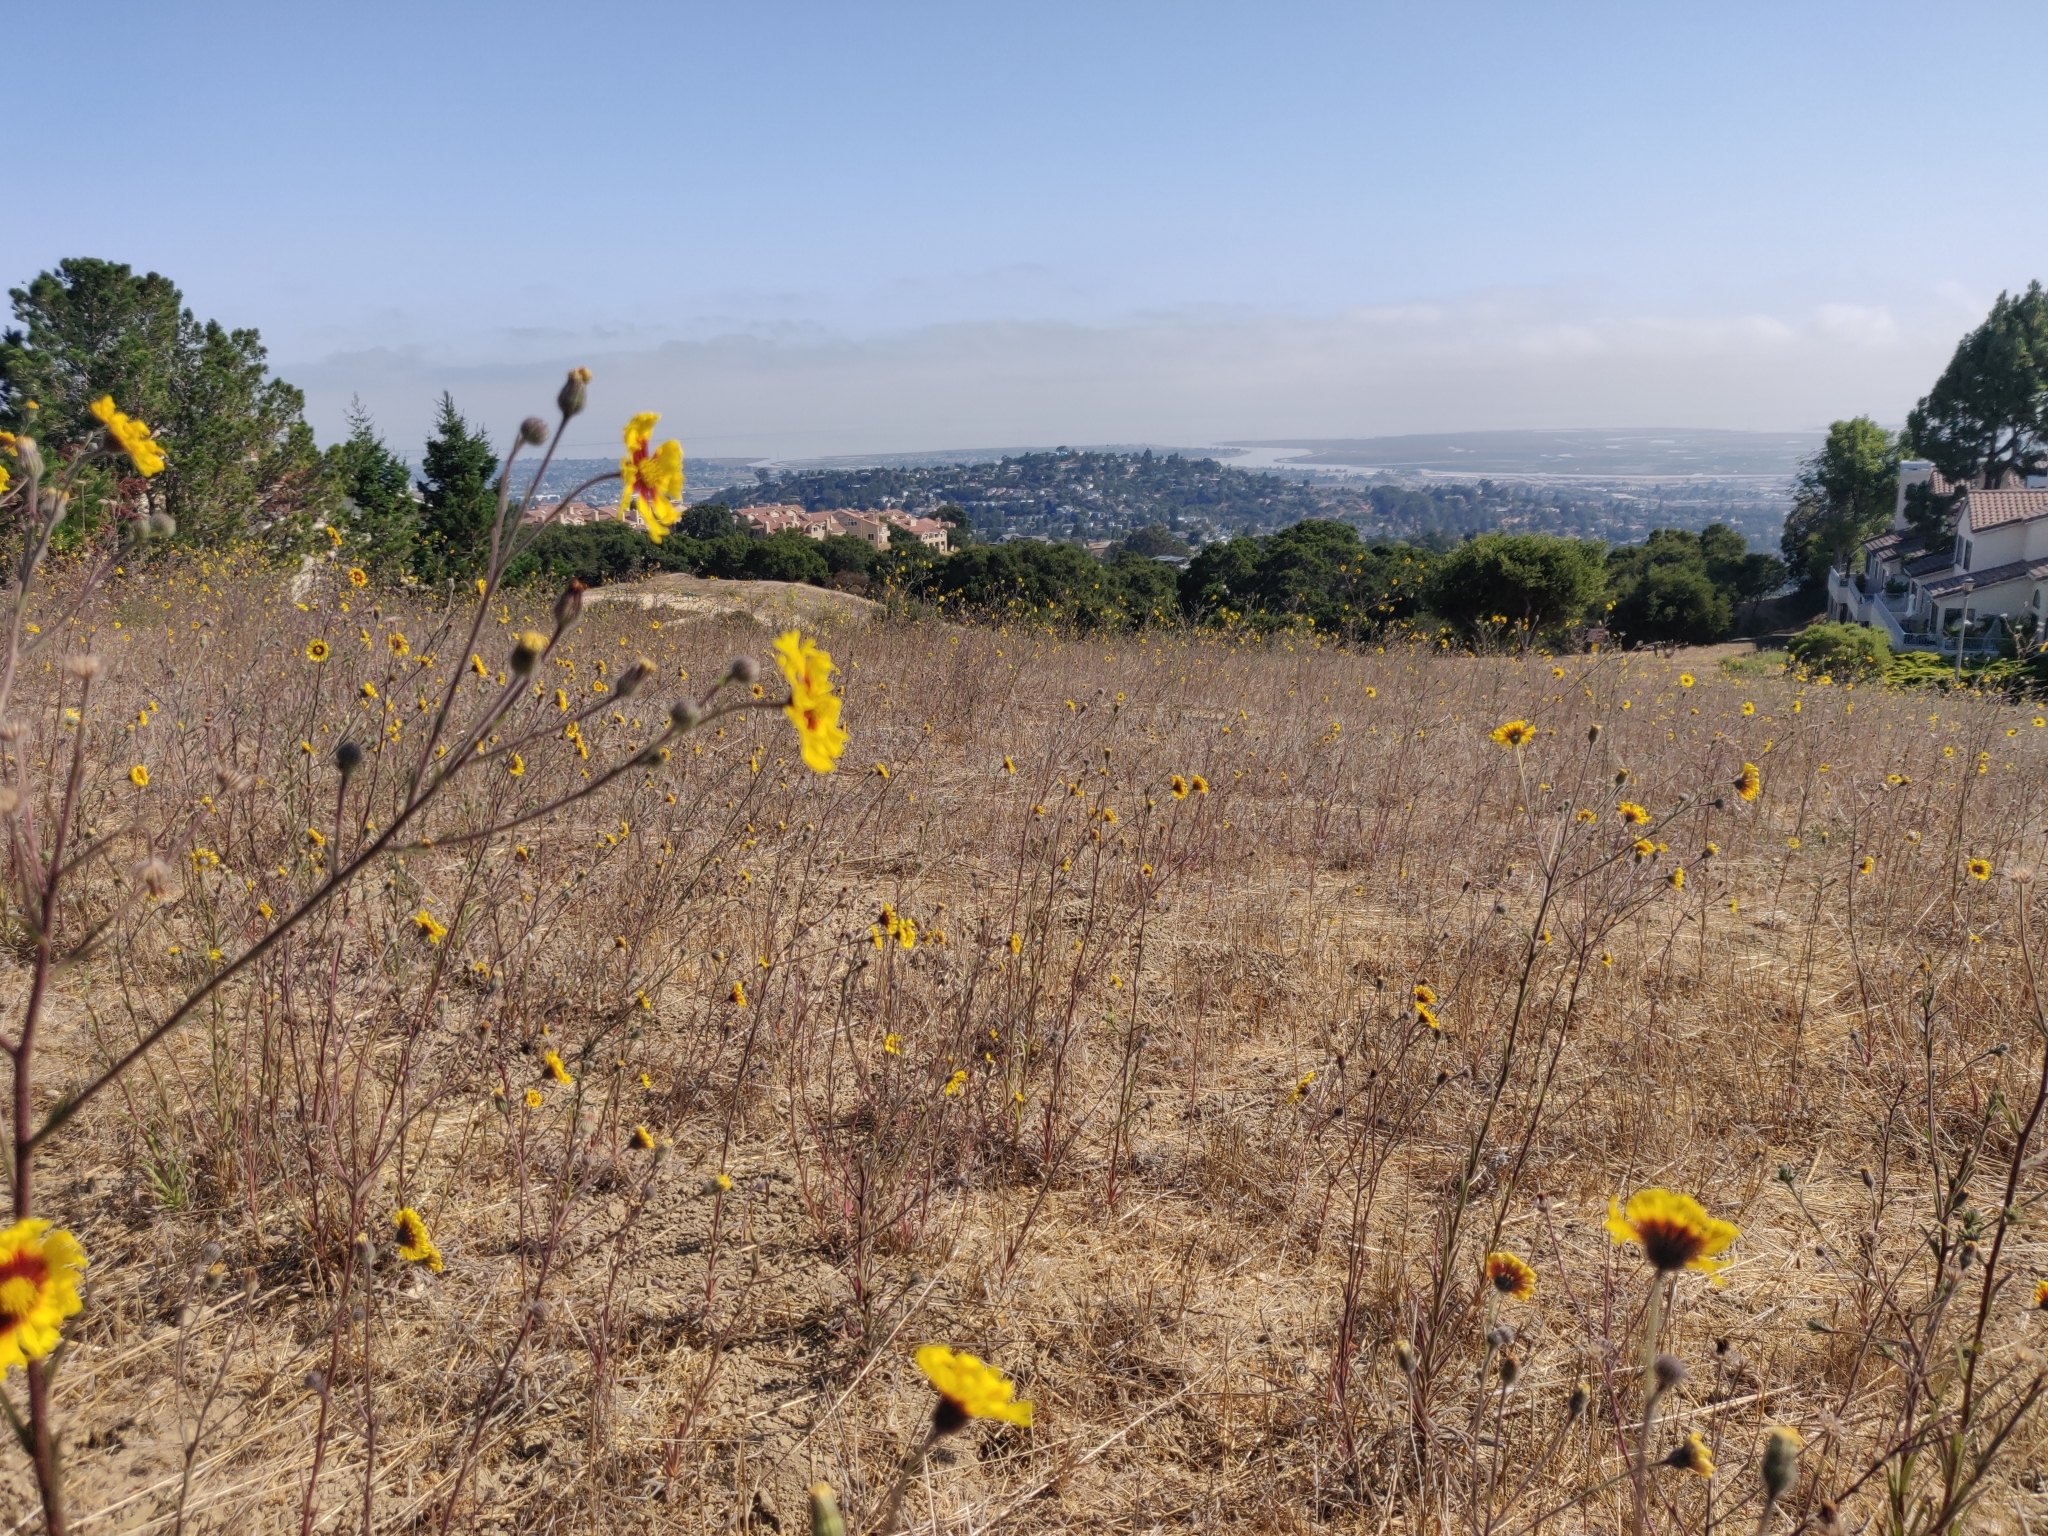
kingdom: Plantae
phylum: Tracheophyta
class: Magnoliopsida
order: Asterales
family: Asteraceae
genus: Madia
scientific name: Madia elegans
